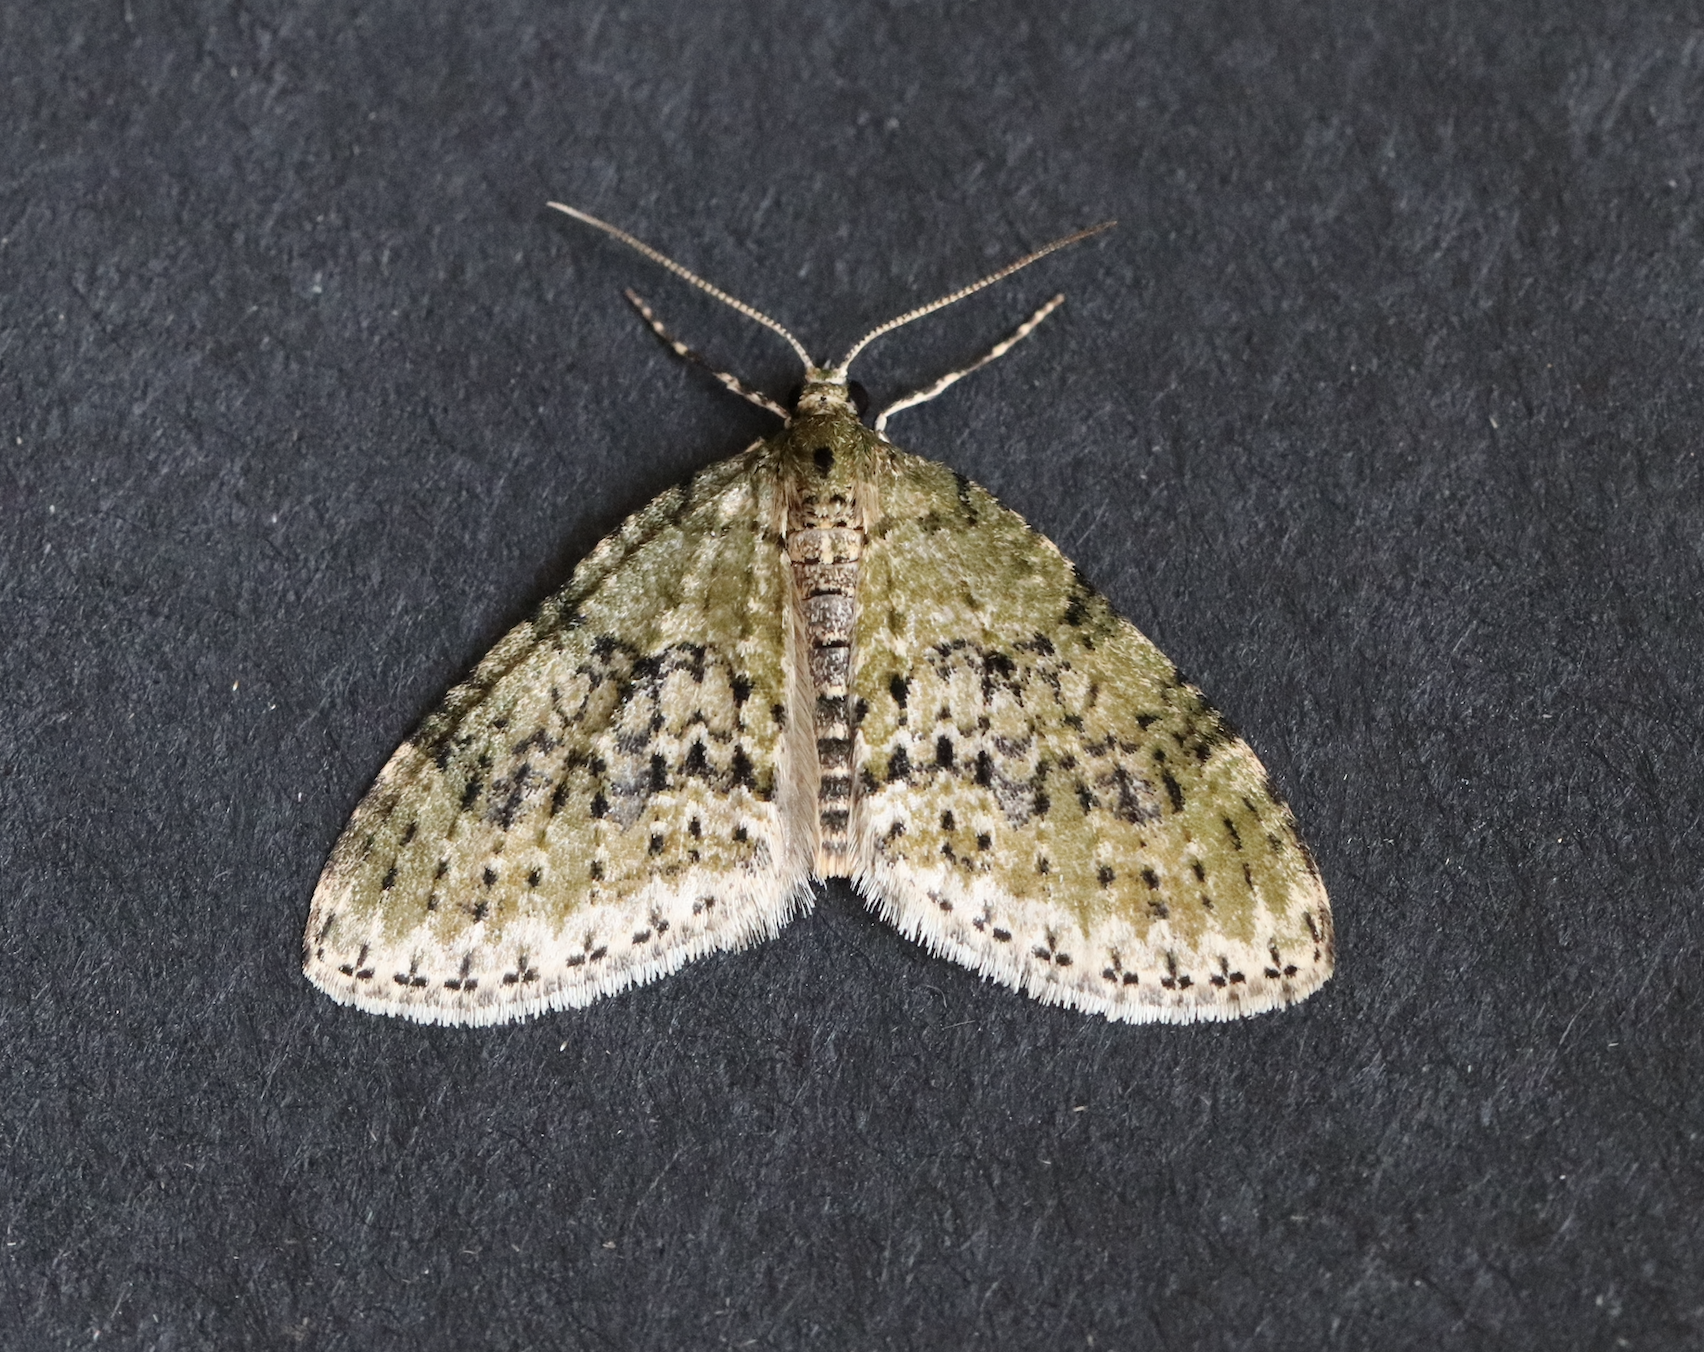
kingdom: Animalia
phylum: Arthropoda
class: Insecta
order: Lepidoptera
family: Geometridae
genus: Acasis
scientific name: Acasis viretata
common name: Yellow-barred brindle
